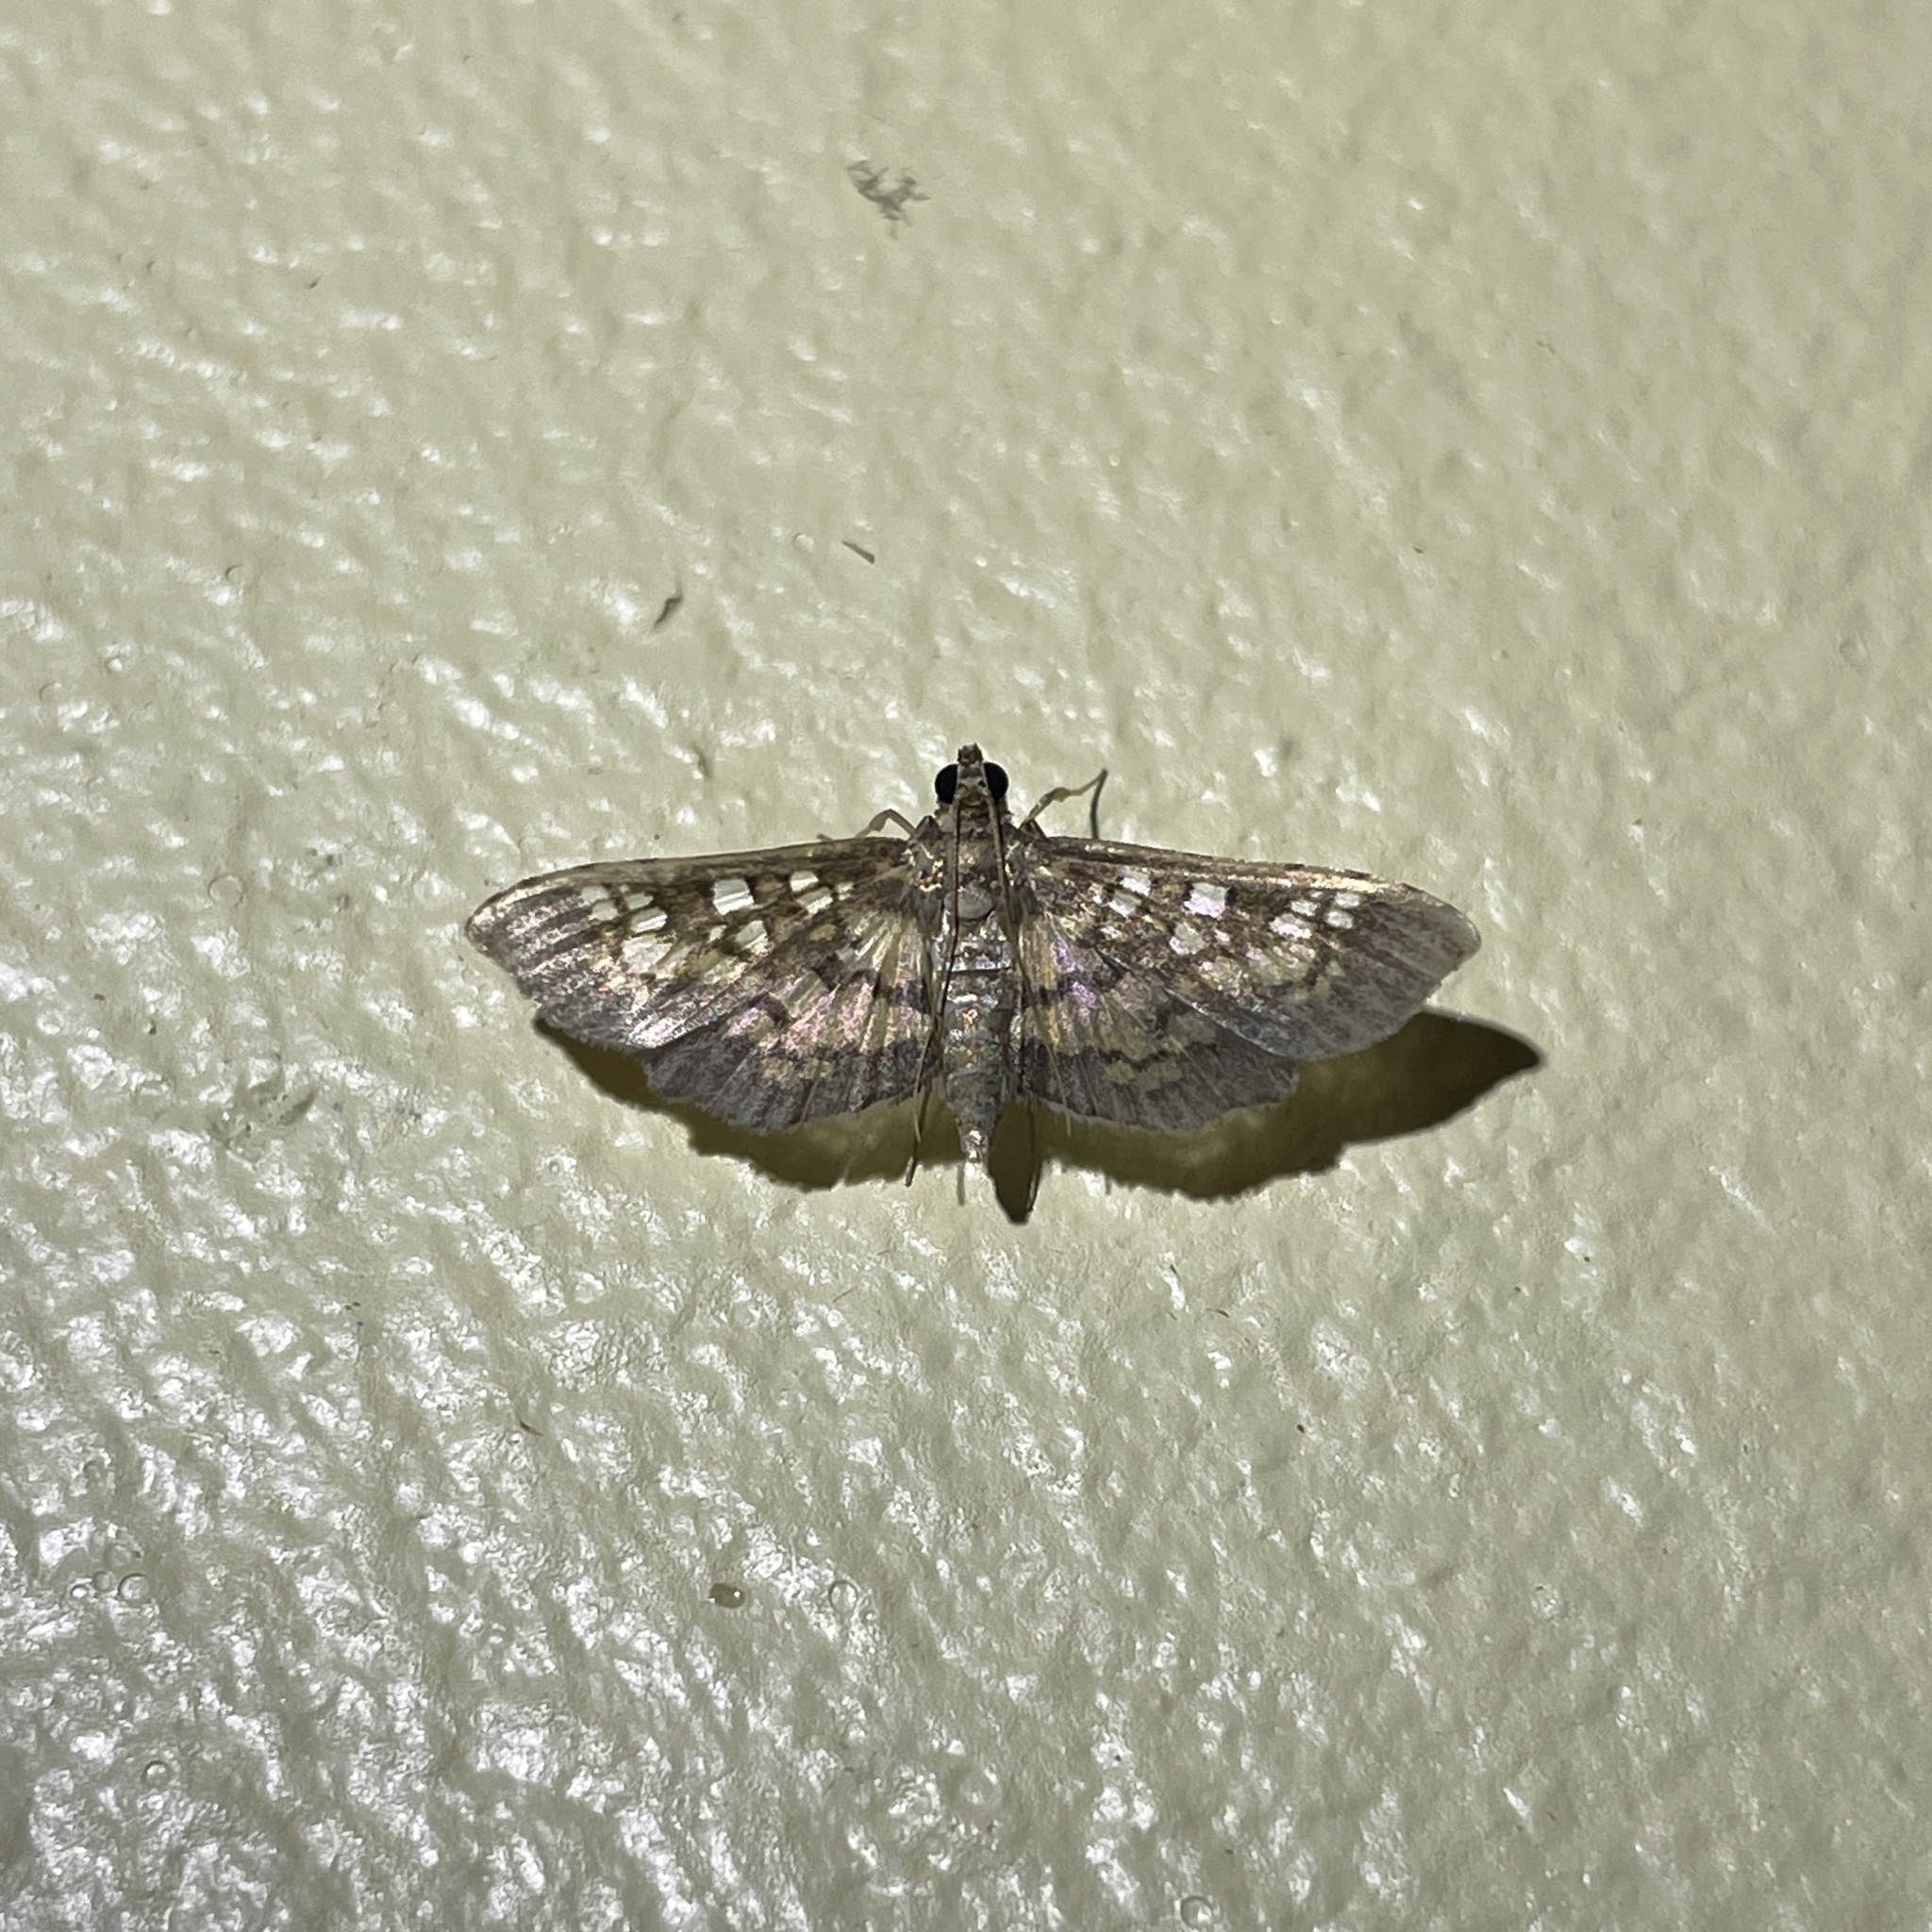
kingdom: Animalia
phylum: Arthropoda
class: Insecta
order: Lepidoptera
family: Crambidae
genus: Samea
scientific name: Samea ecclesialis
